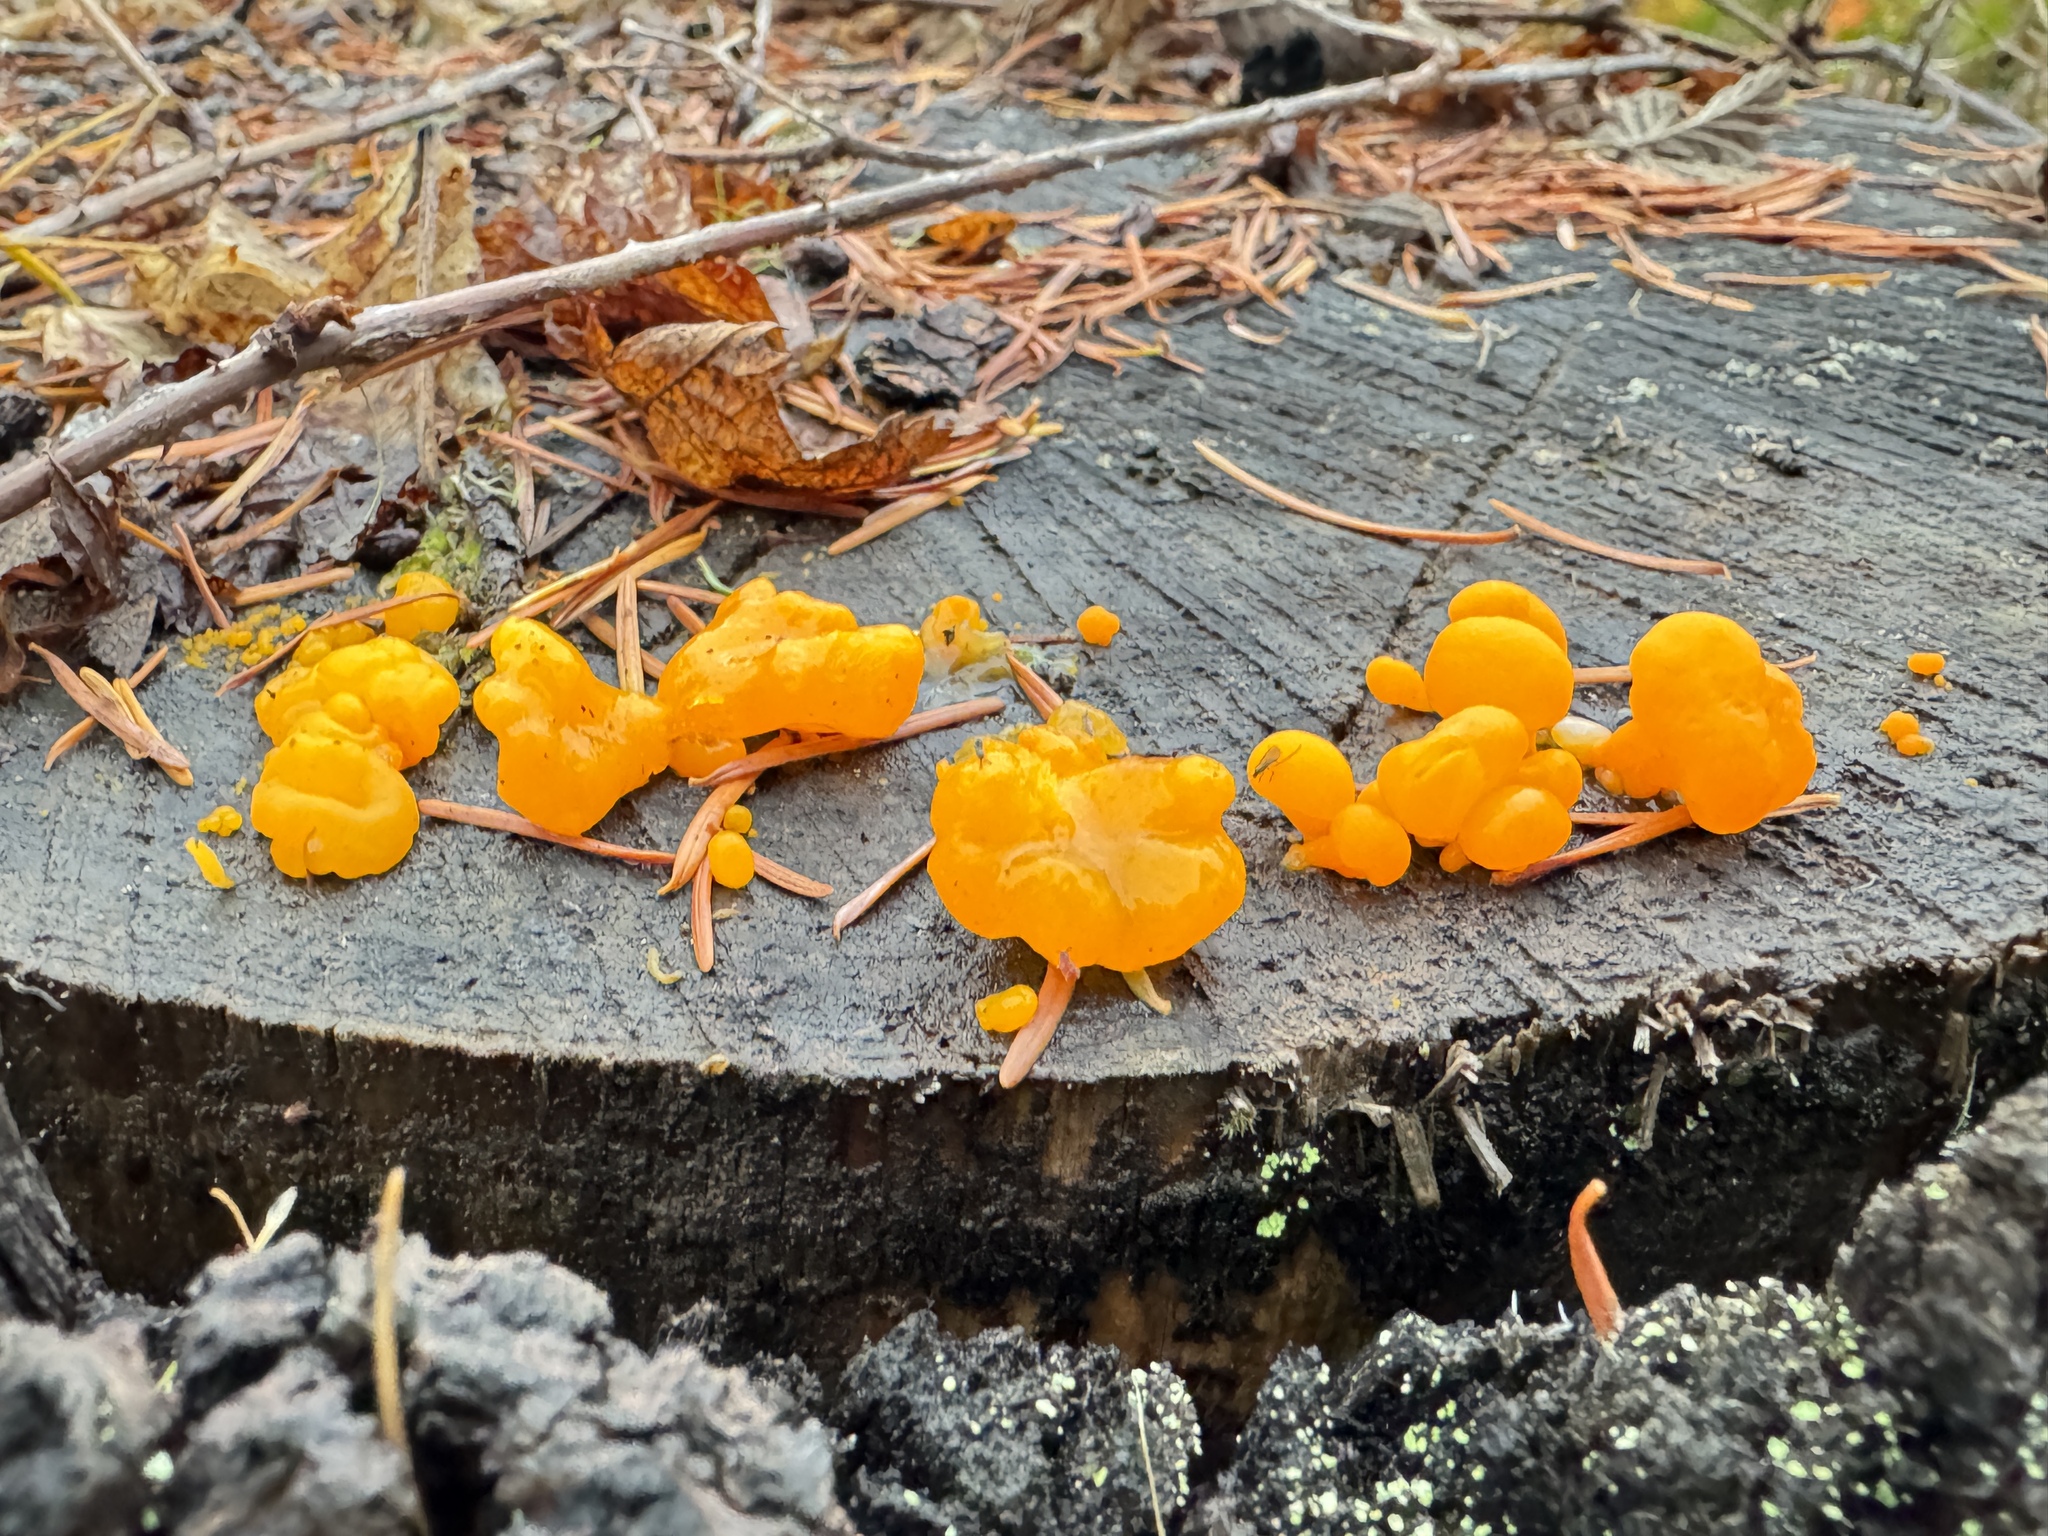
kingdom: Fungi
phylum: Basidiomycota
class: Dacrymycetes
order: Dacrymycetales
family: Dacrymycetaceae
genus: Dacrymyces
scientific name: Dacrymyces chrysospermus
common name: Orange jelly spot
